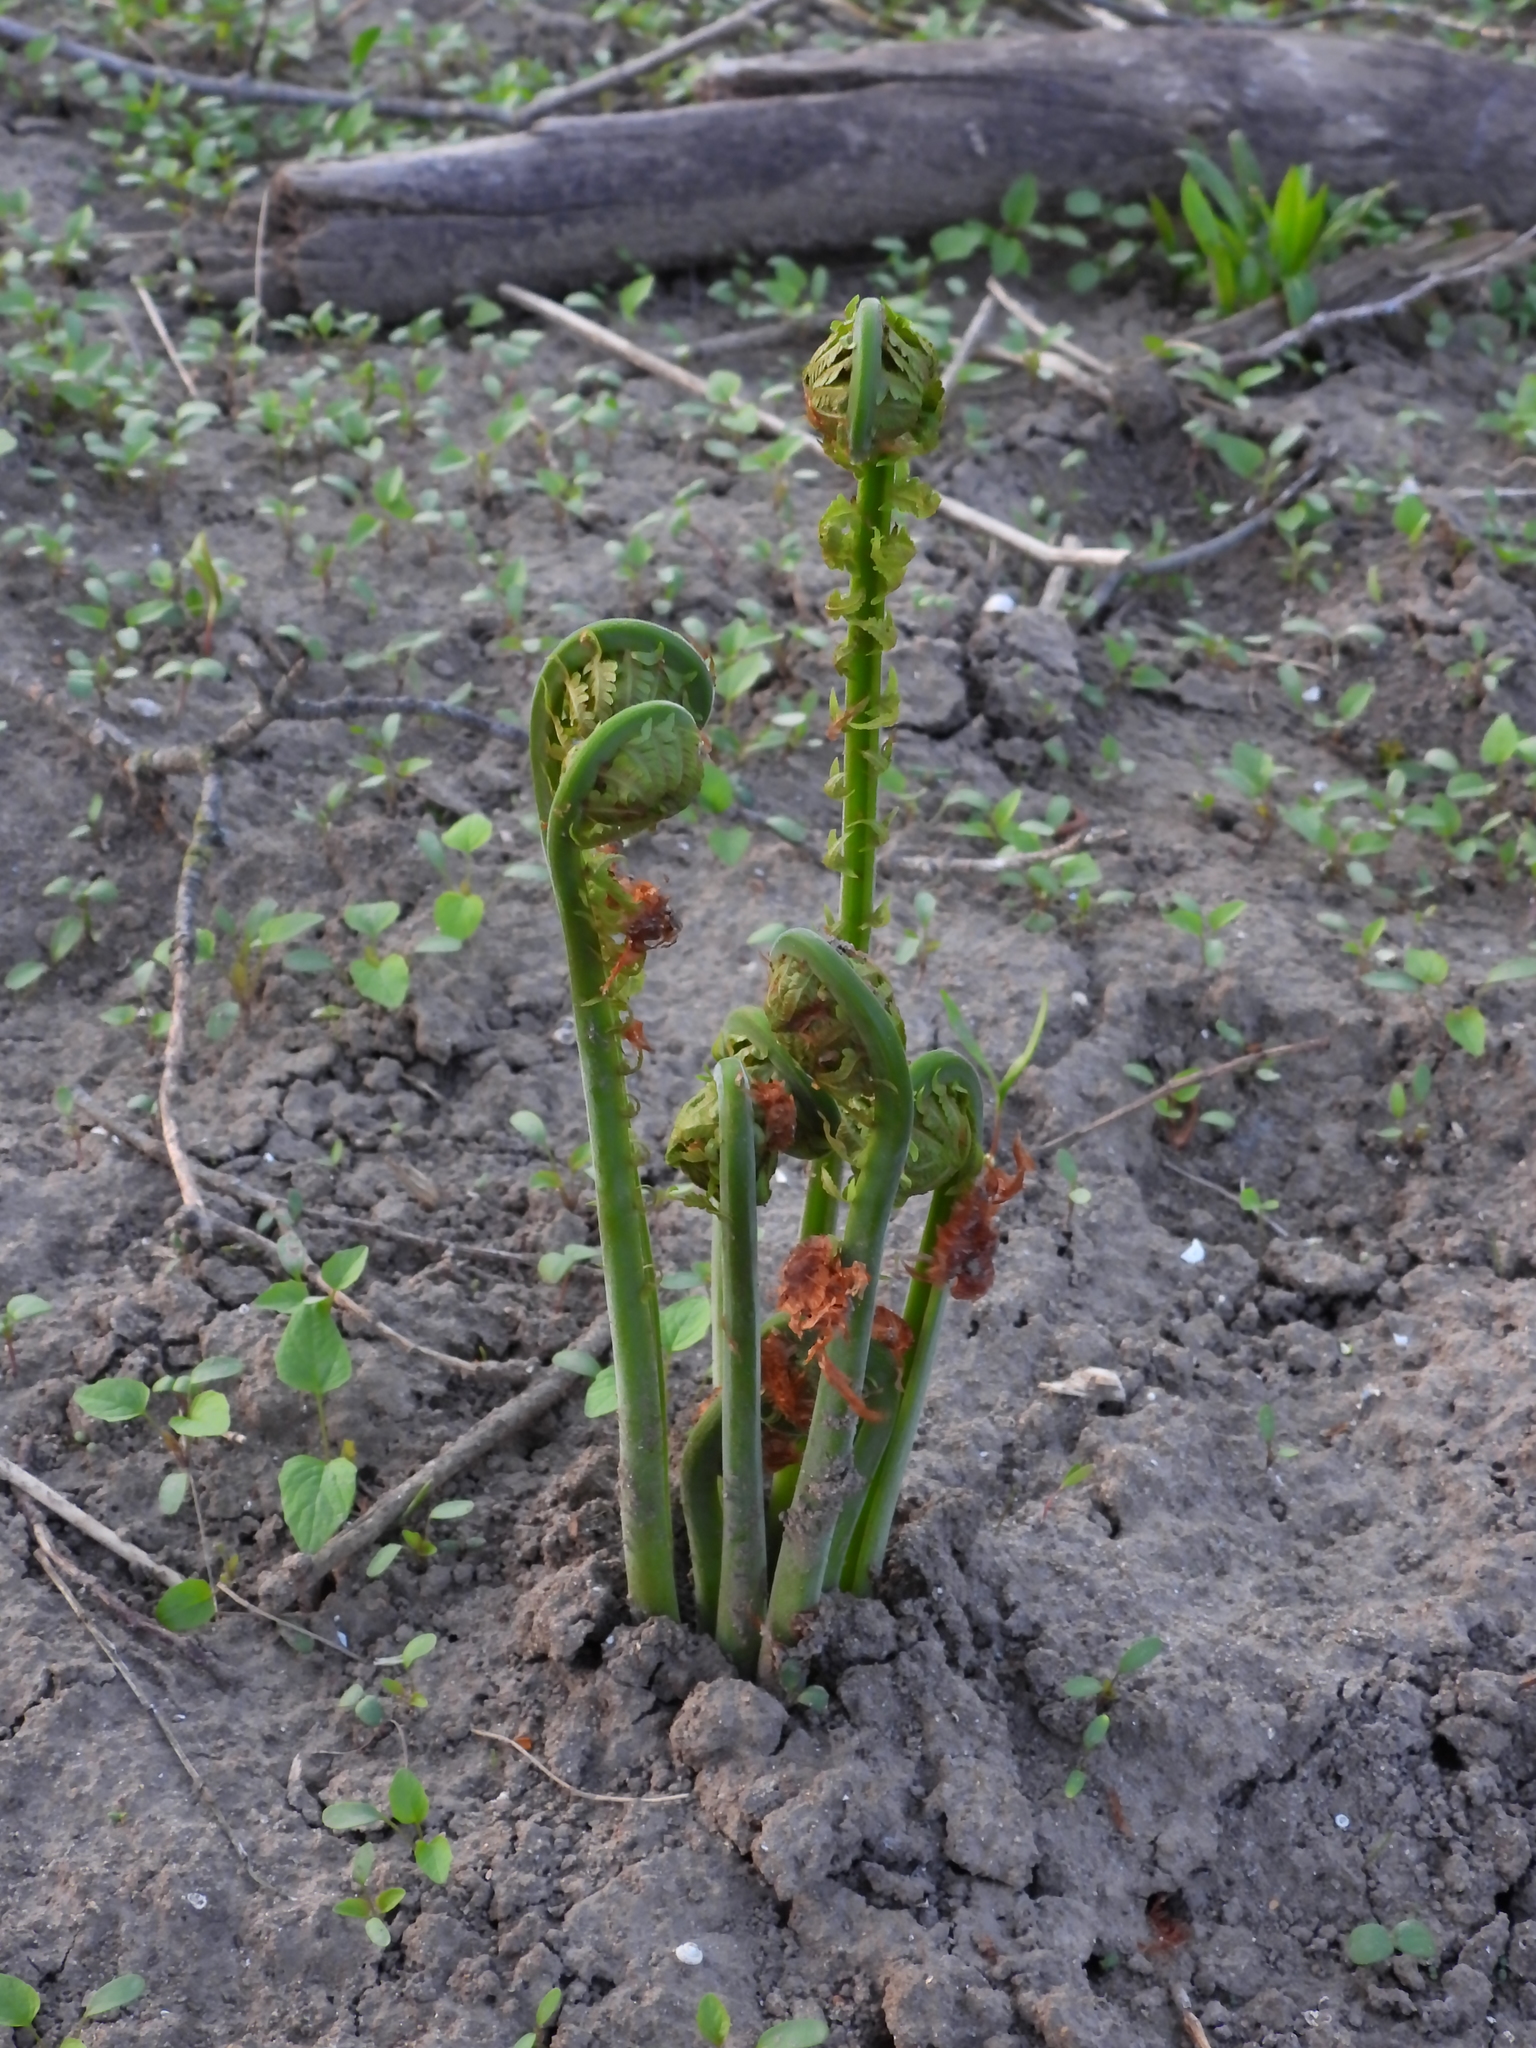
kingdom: Plantae
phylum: Tracheophyta
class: Polypodiopsida
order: Polypodiales
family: Onocleaceae
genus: Matteuccia
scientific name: Matteuccia struthiopteris
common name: Ostrich fern
